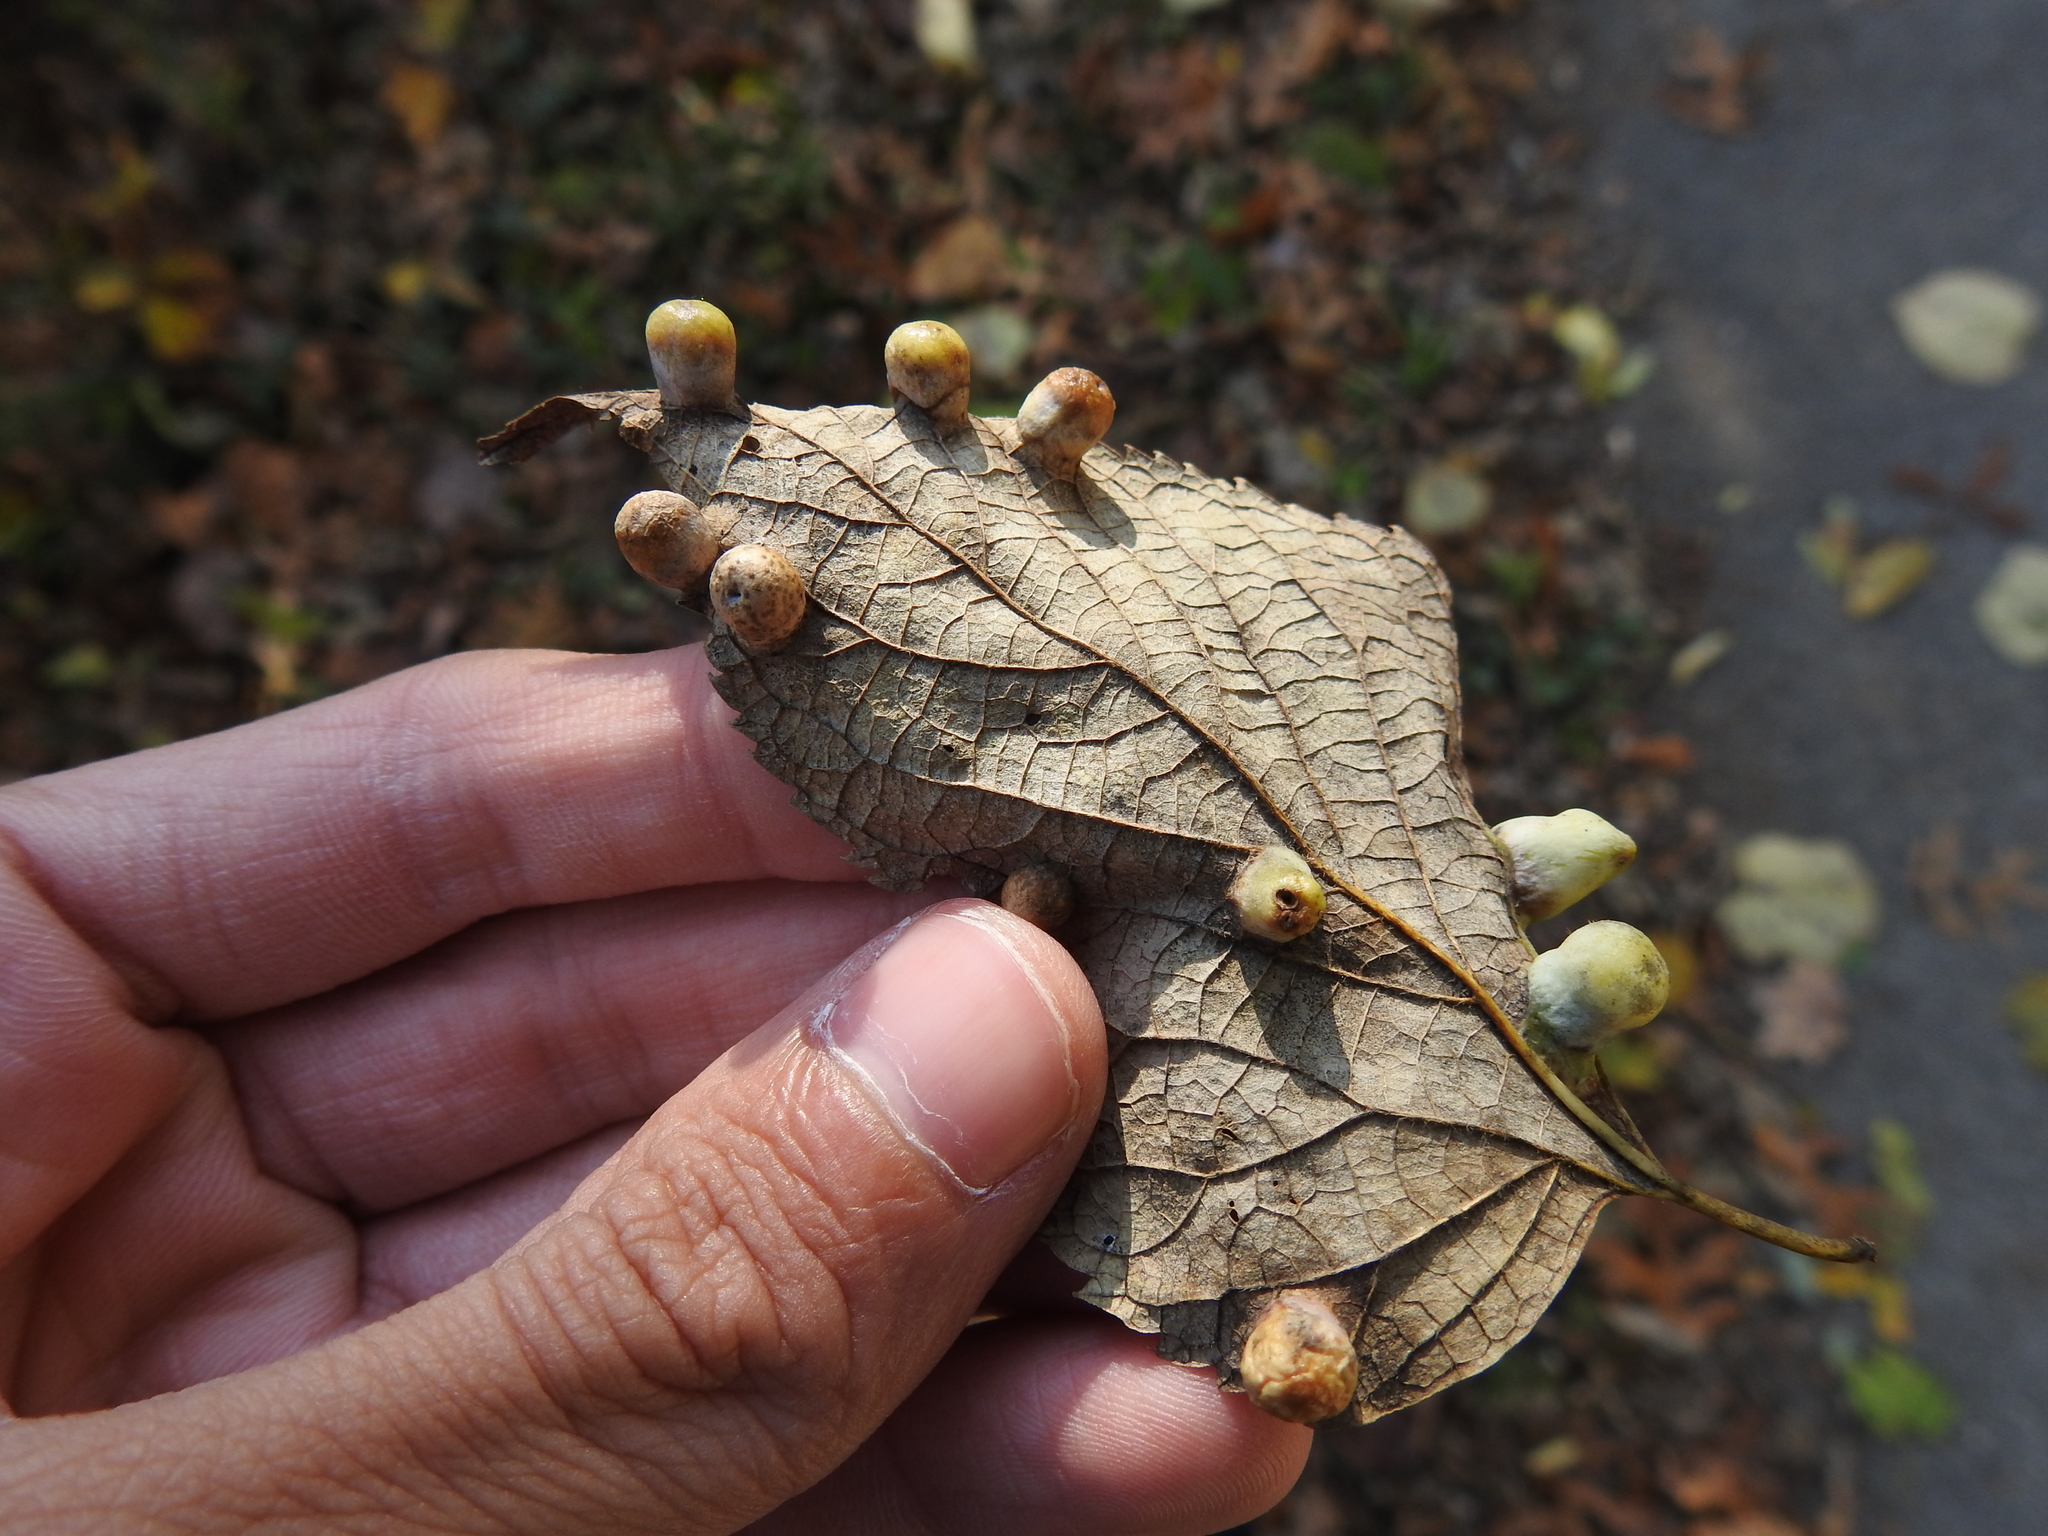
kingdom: Animalia
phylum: Arthropoda
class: Insecta
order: Hemiptera
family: Aphalaridae
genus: Pachypsylla
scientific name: Pachypsylla celtidismamma
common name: Hackberry nipplegall psyllid
